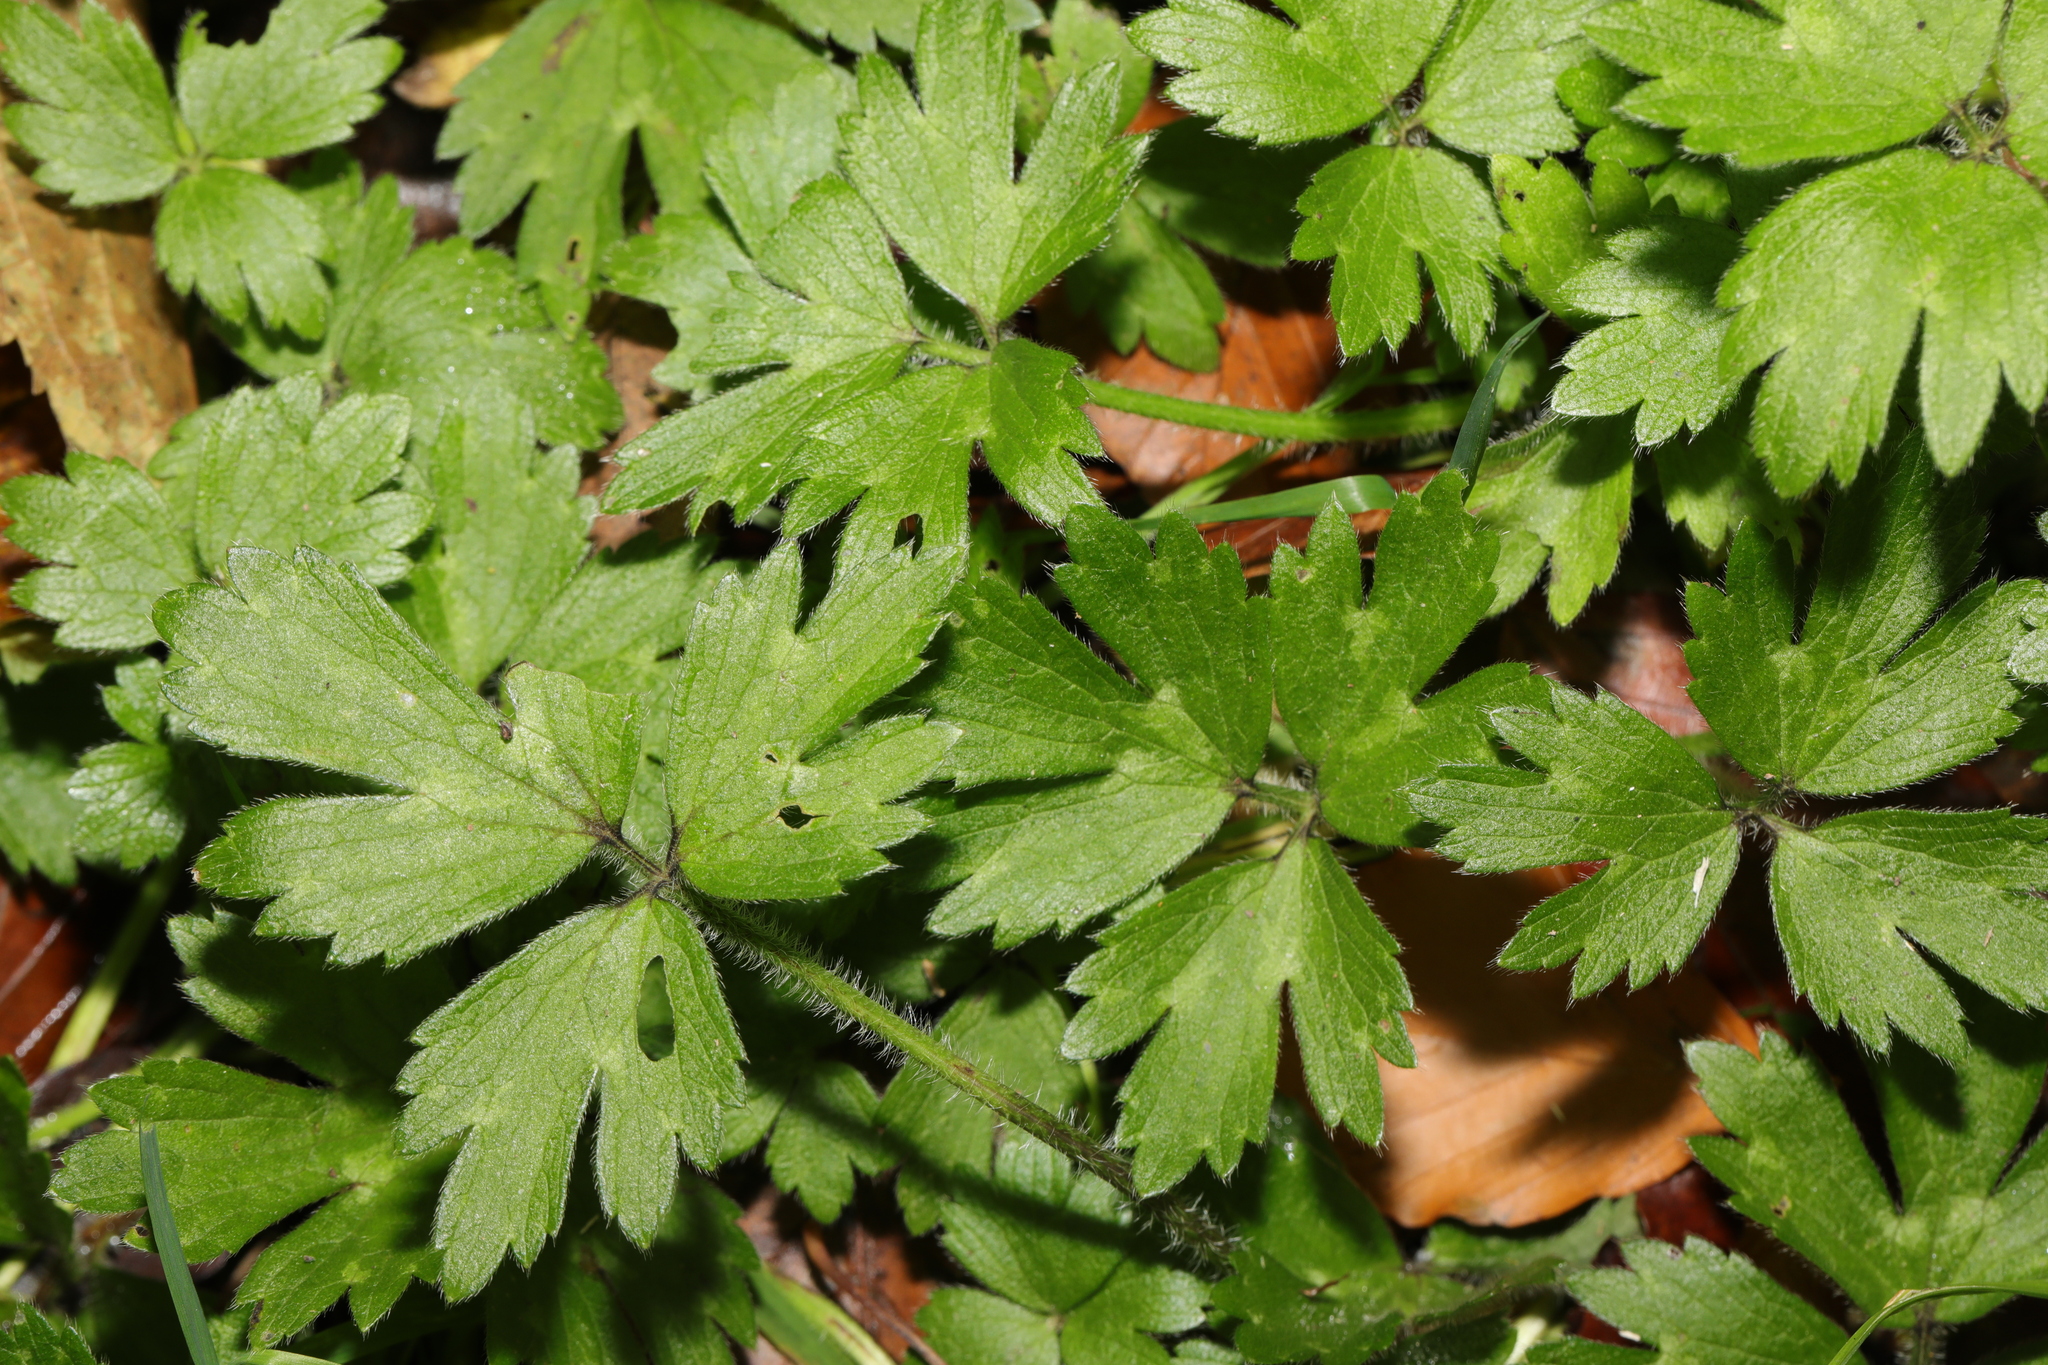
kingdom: Plantae
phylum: Tracheophyta
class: Magnoliopsida
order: Ranunculales
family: Ranunculaceae
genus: Ranunculus
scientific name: Ranunculus repens
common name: Creeping buttercup
